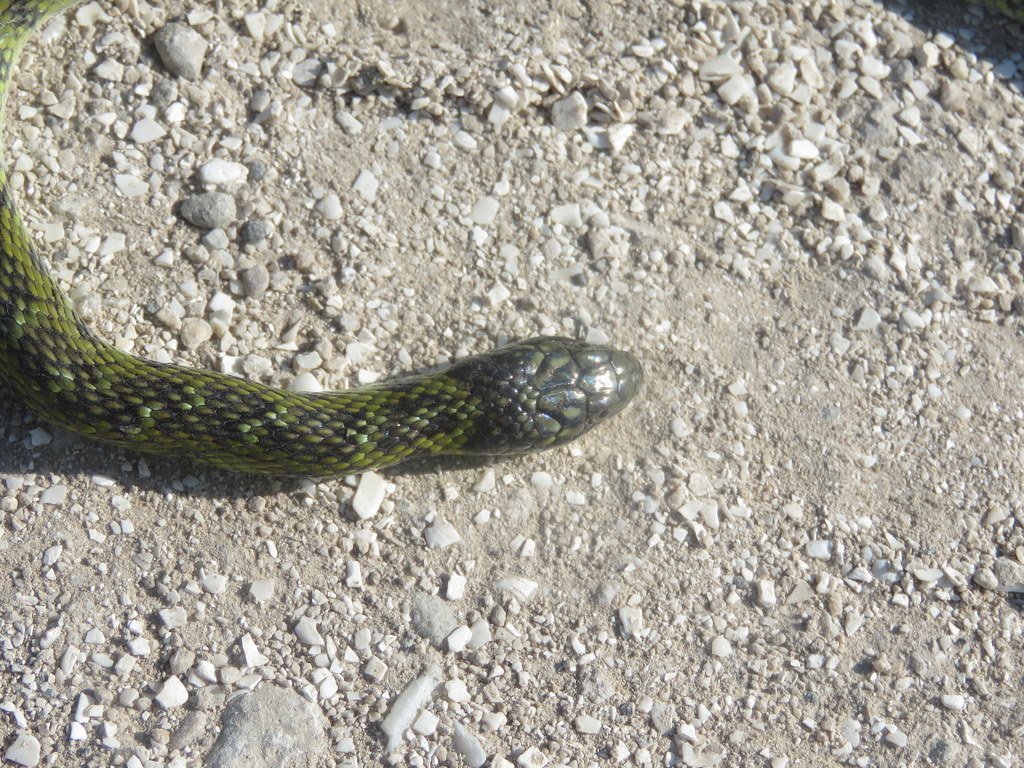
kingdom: Animalia
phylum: Chordata
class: Squamata
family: Colubridae
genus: Erythrolamprus
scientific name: Erythrolamprus poecilogyrus
